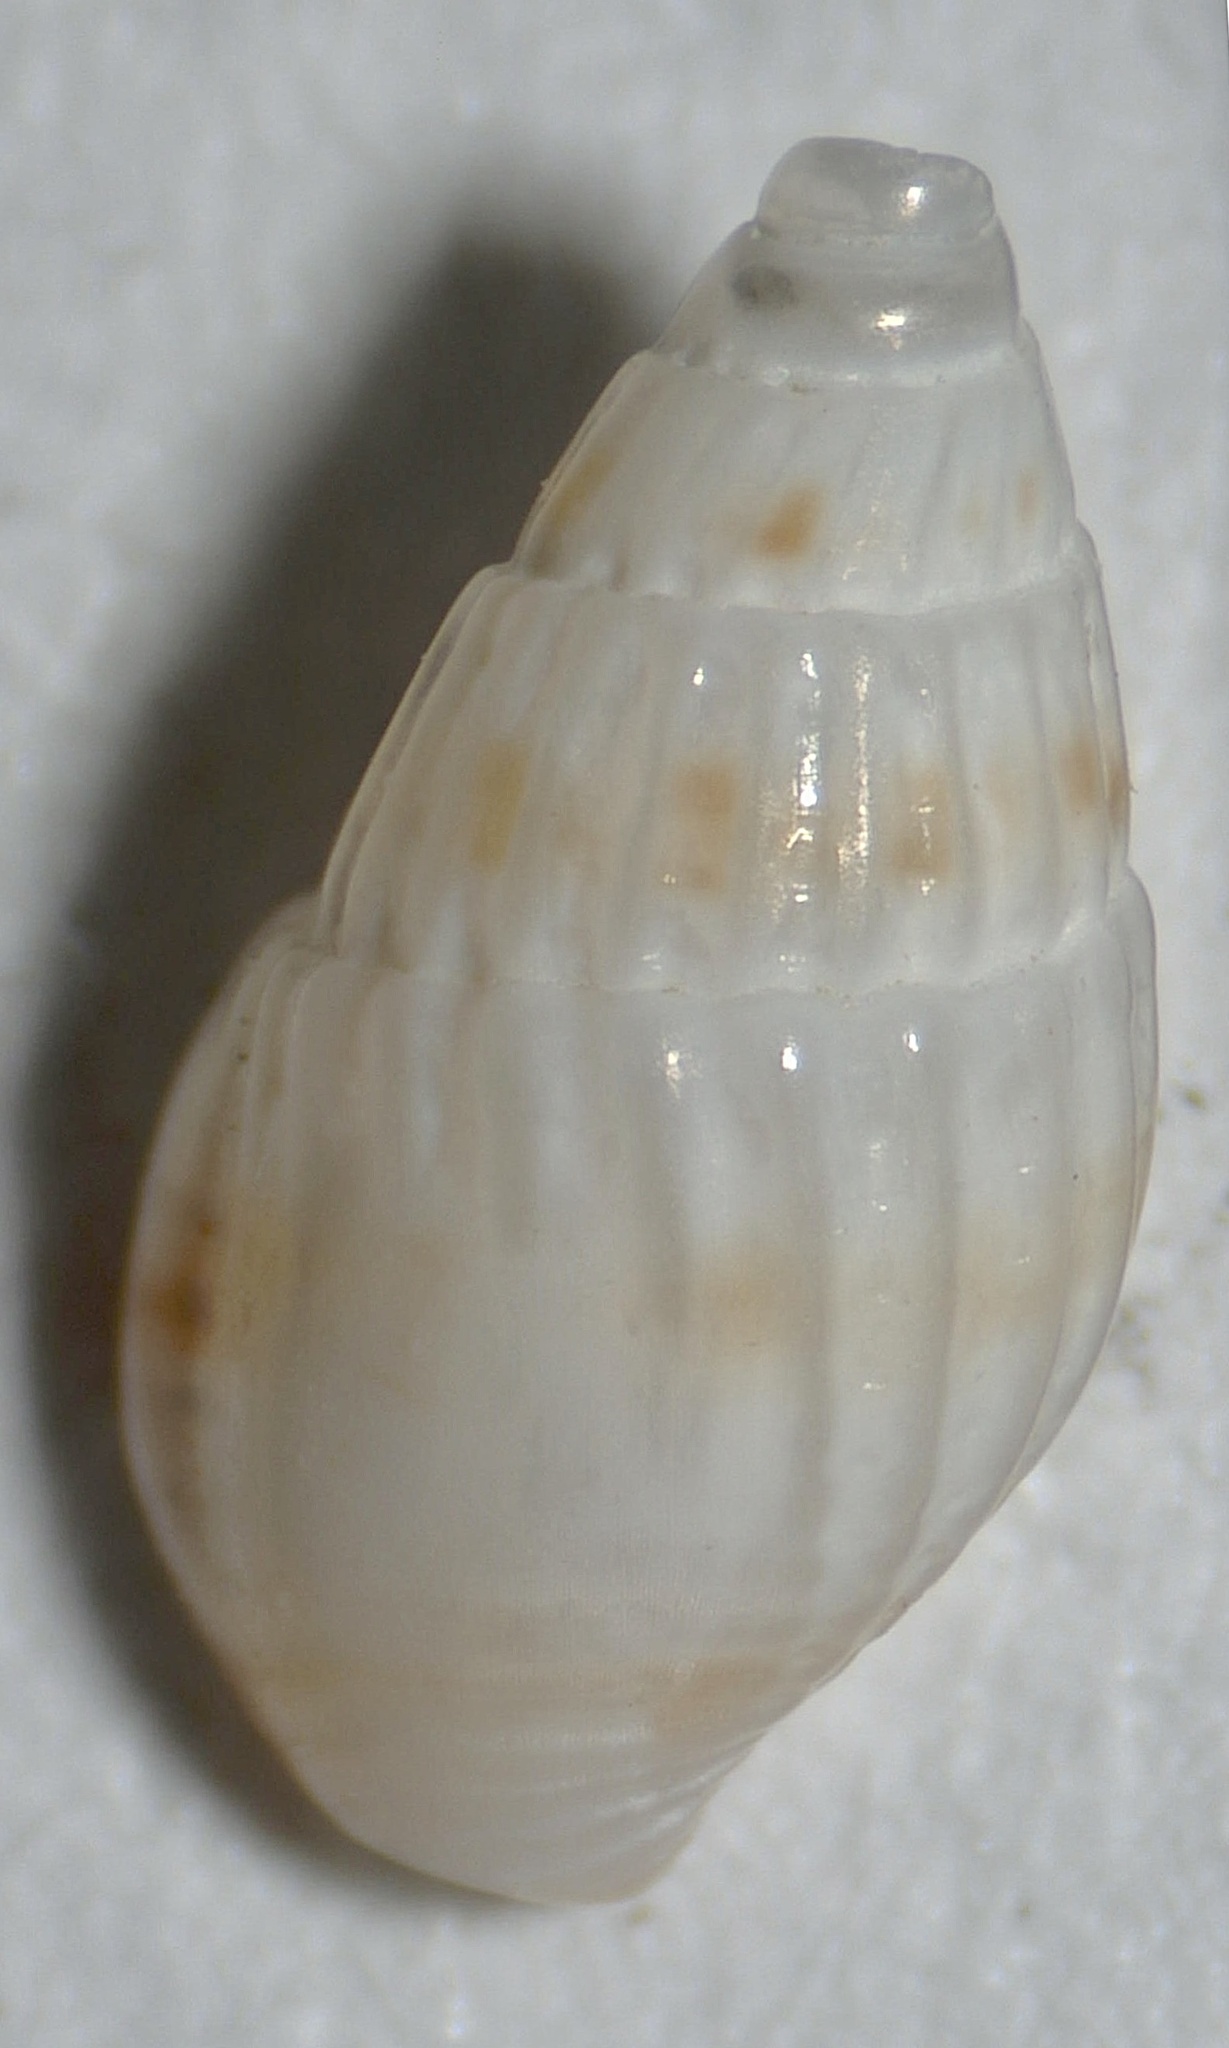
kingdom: Animalia
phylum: Mollusca
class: Gastropoda
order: Neogastropoda
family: Columbellidae
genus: Parvanachis
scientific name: Parvanachis obesa
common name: Fat dovesnail
